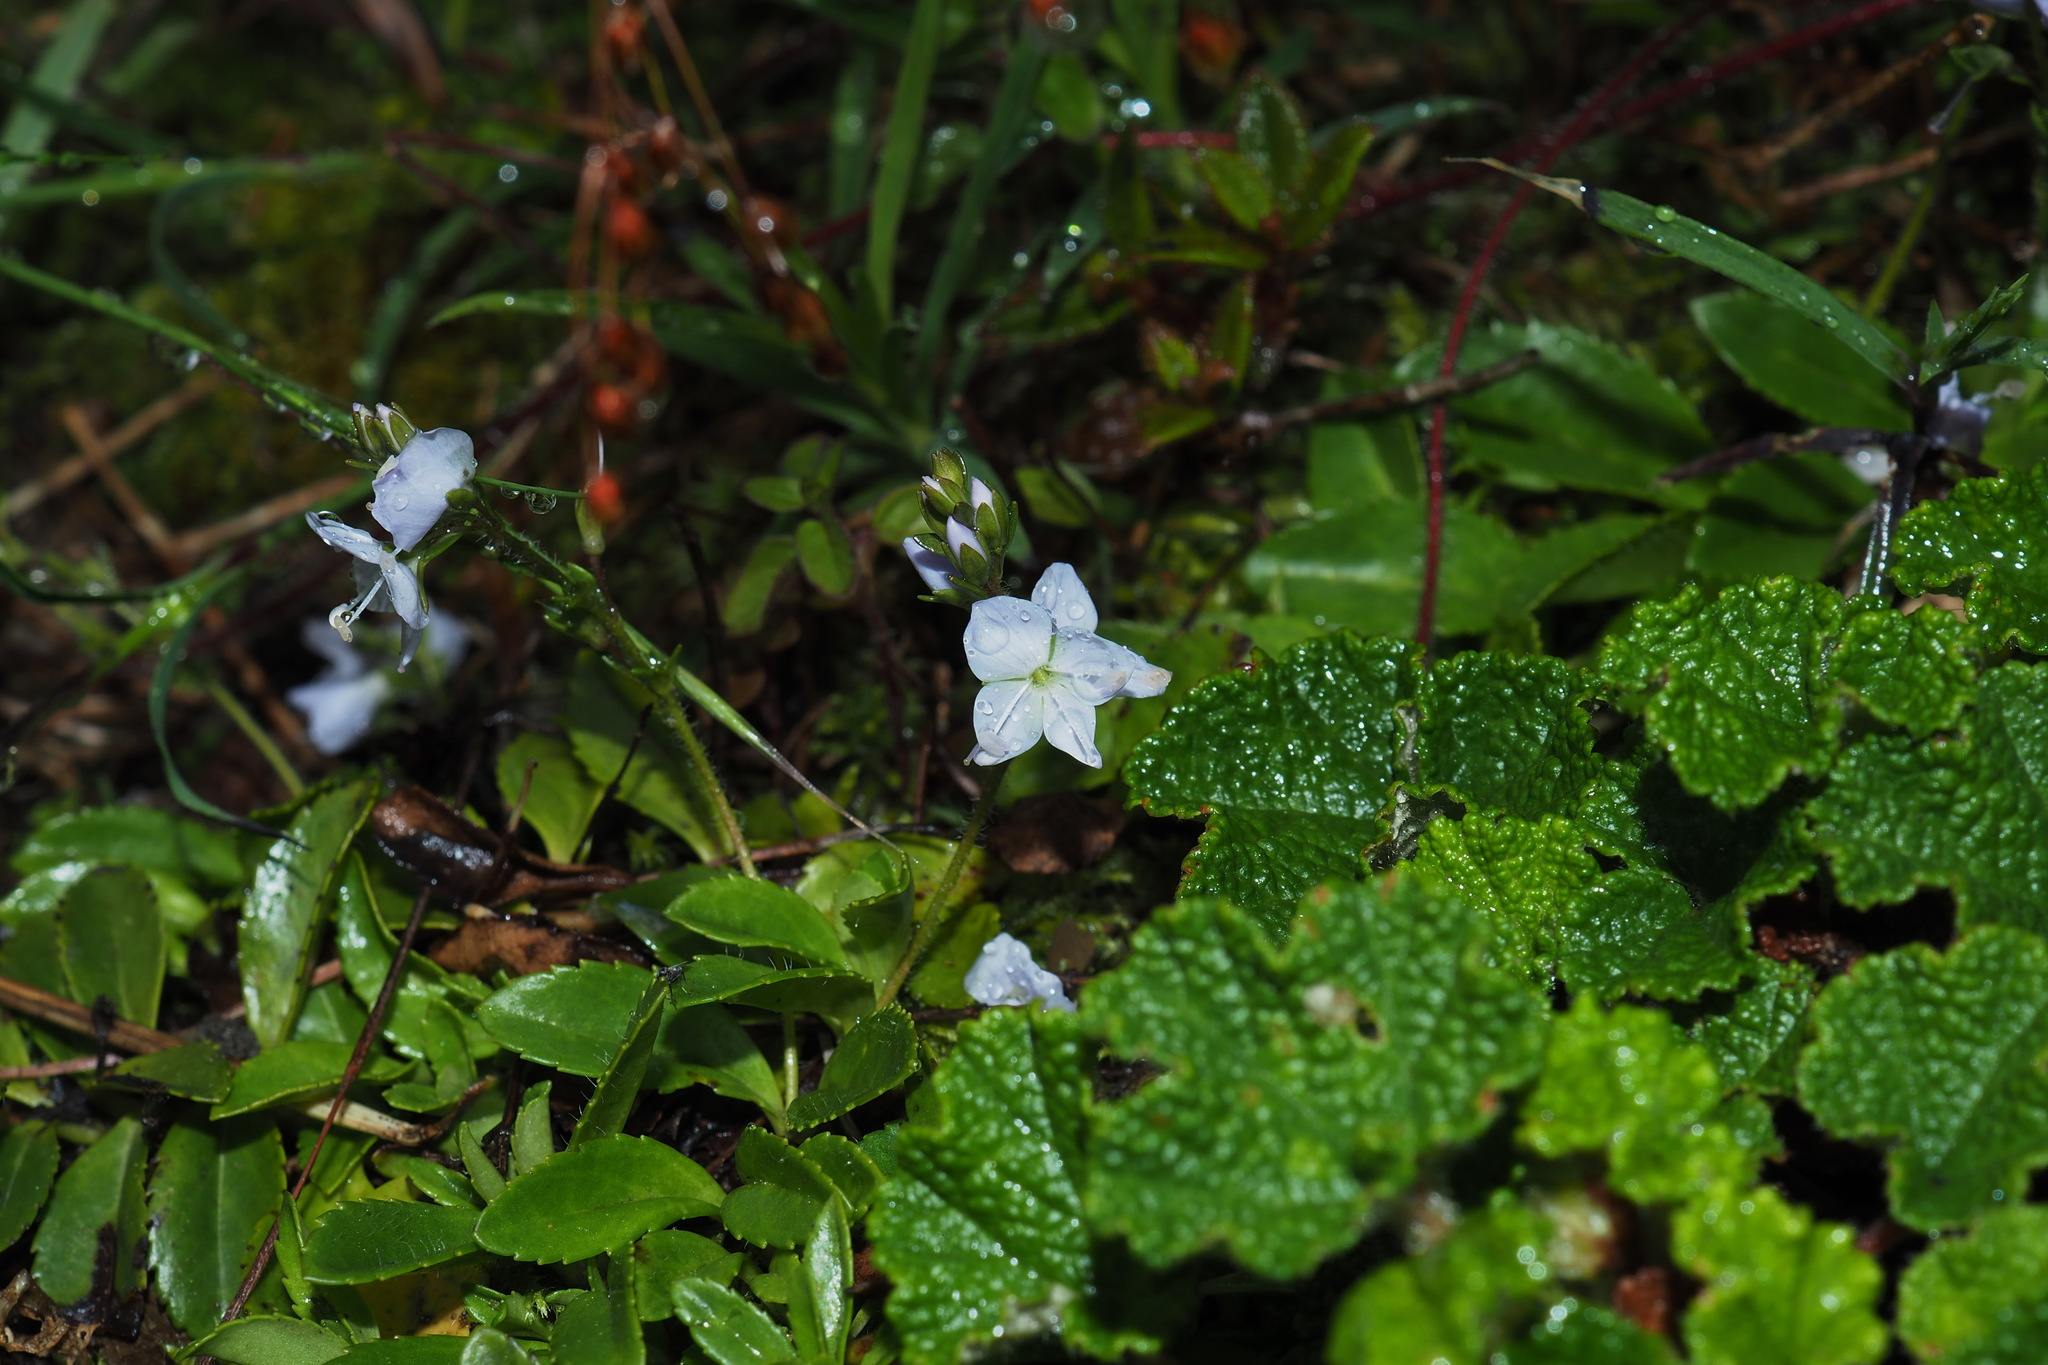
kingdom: Plantae
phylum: Tracheophyta
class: Magnoliopsida
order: Lamiales
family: Plantaginaceae
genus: Veronica
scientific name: Veronica morrisonicola
